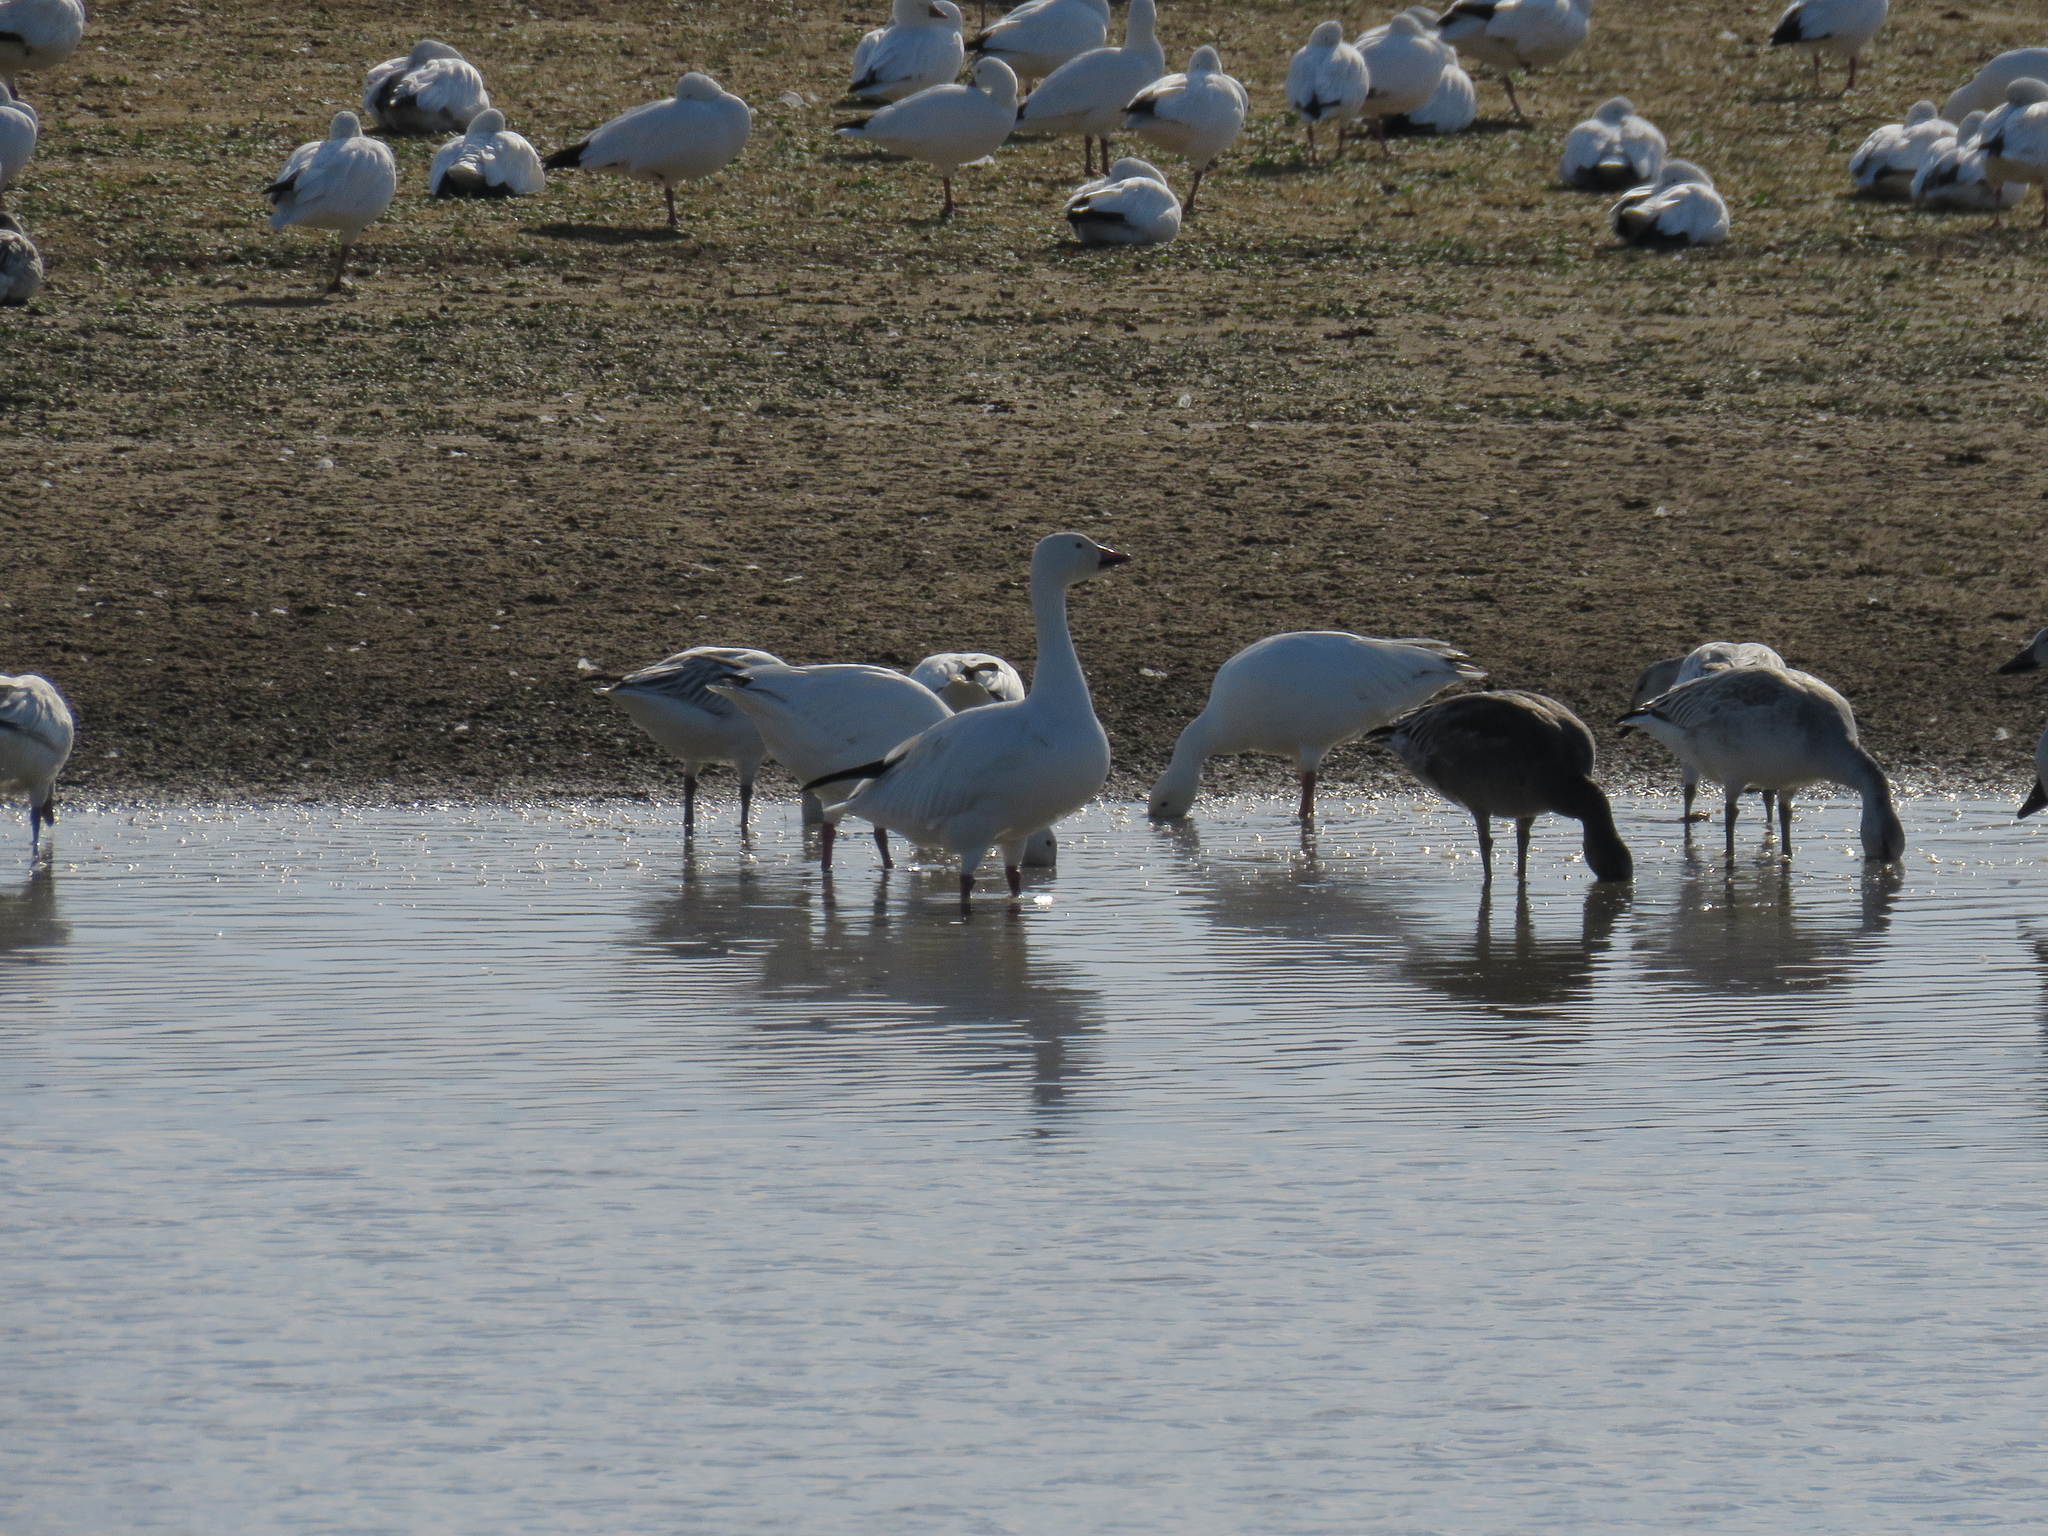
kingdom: Animalia
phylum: Chordata
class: Aves
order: Anseriformes
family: Anatidae
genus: Anser
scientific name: Anser caerulescens
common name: Snow goose
